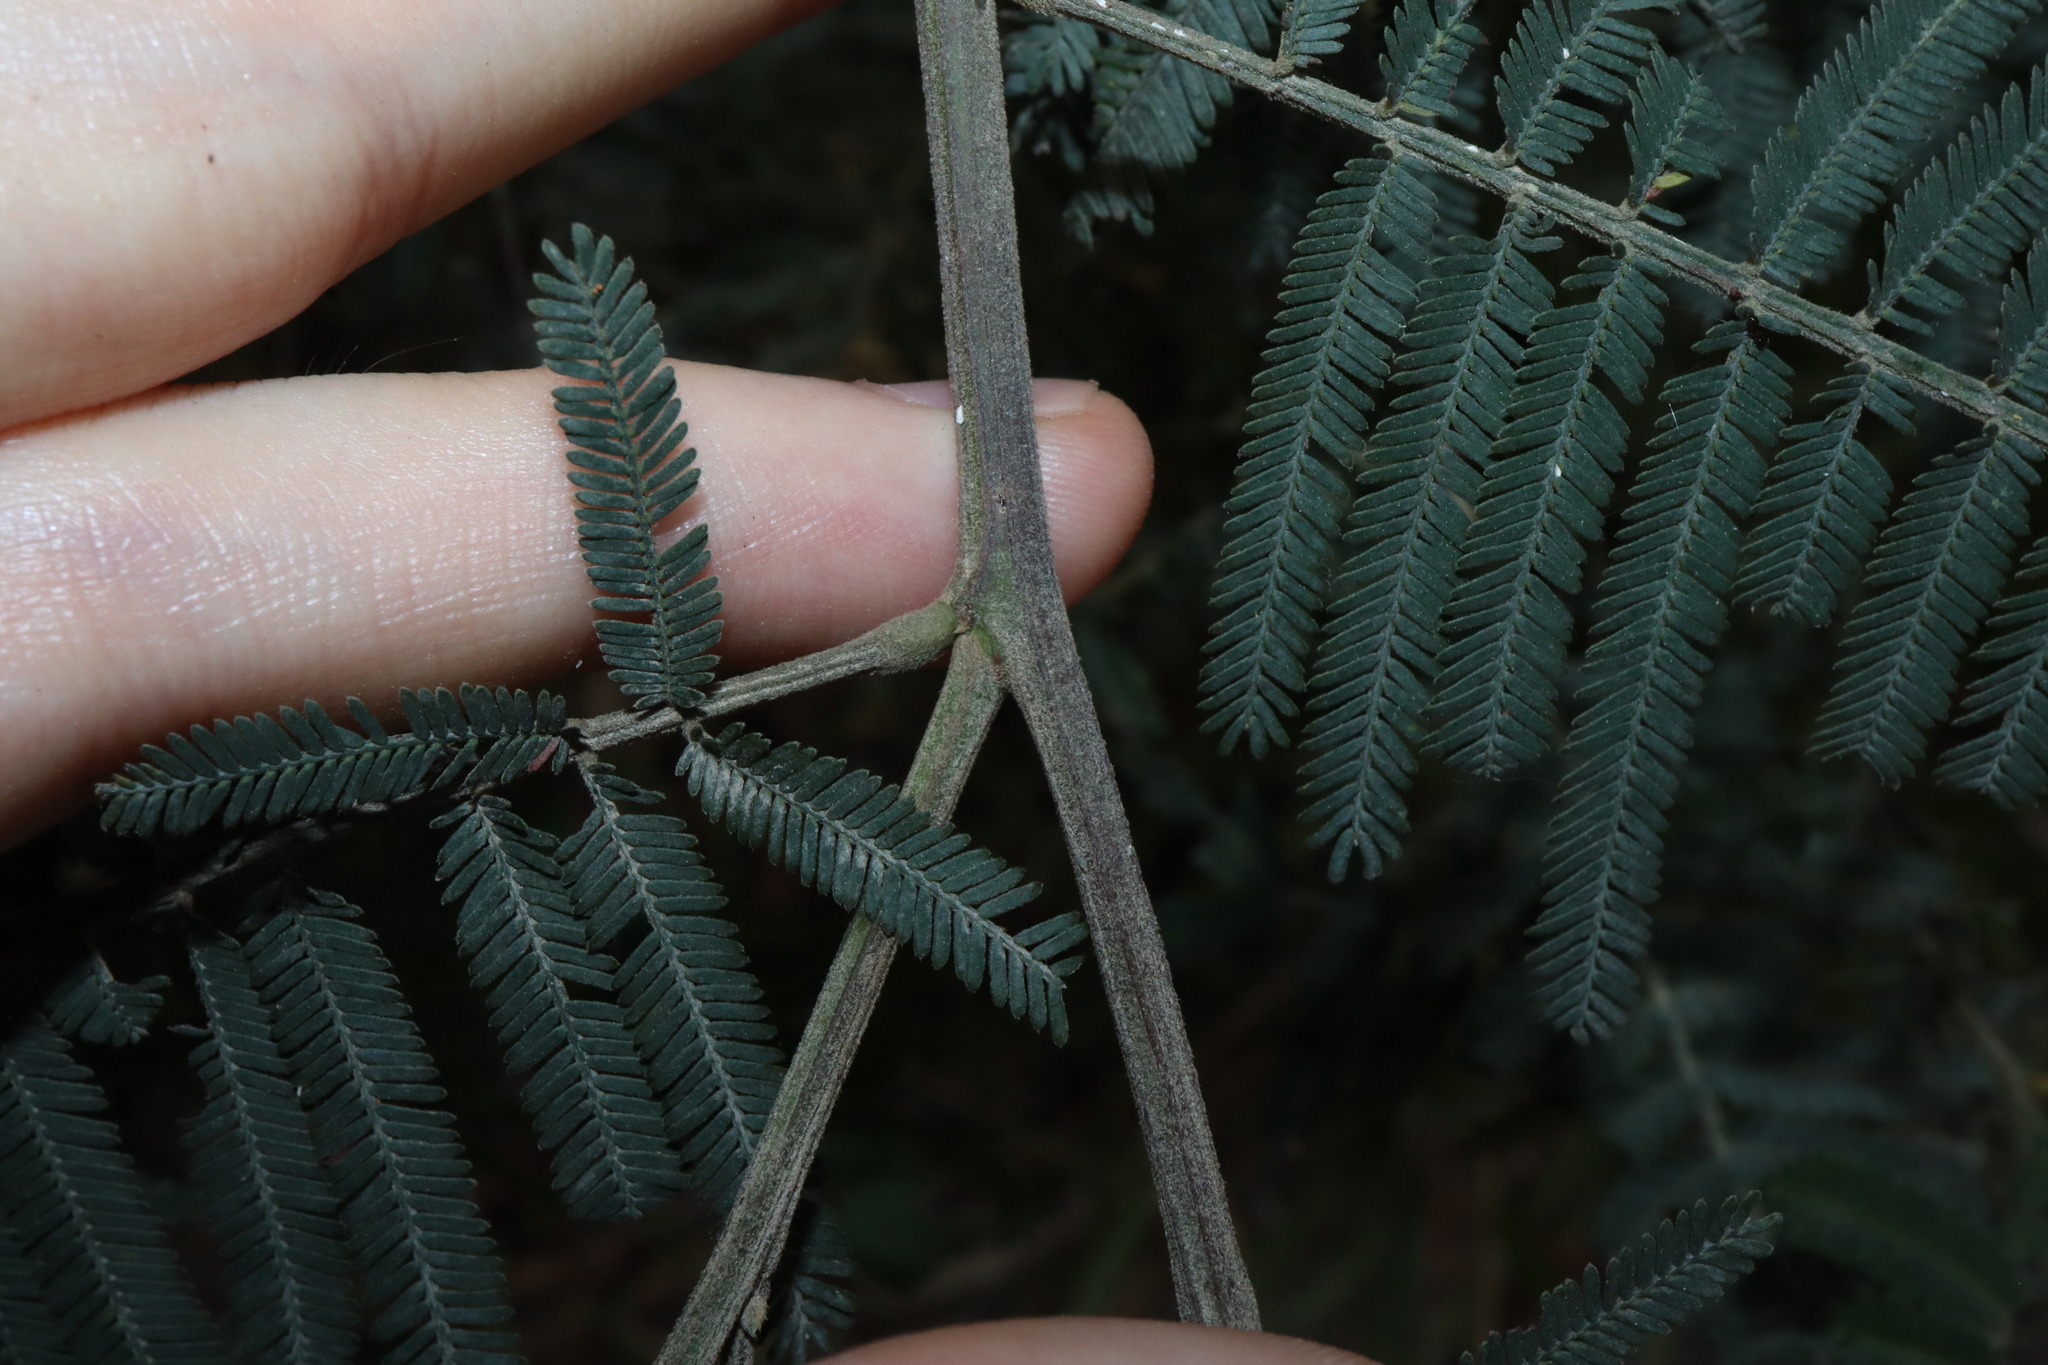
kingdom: Plantae
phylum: Tracheophyta
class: Magnoliopsida
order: Fabales
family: Fabaceae
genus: Acacia
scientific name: Acacia irrorata
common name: Green wattle
